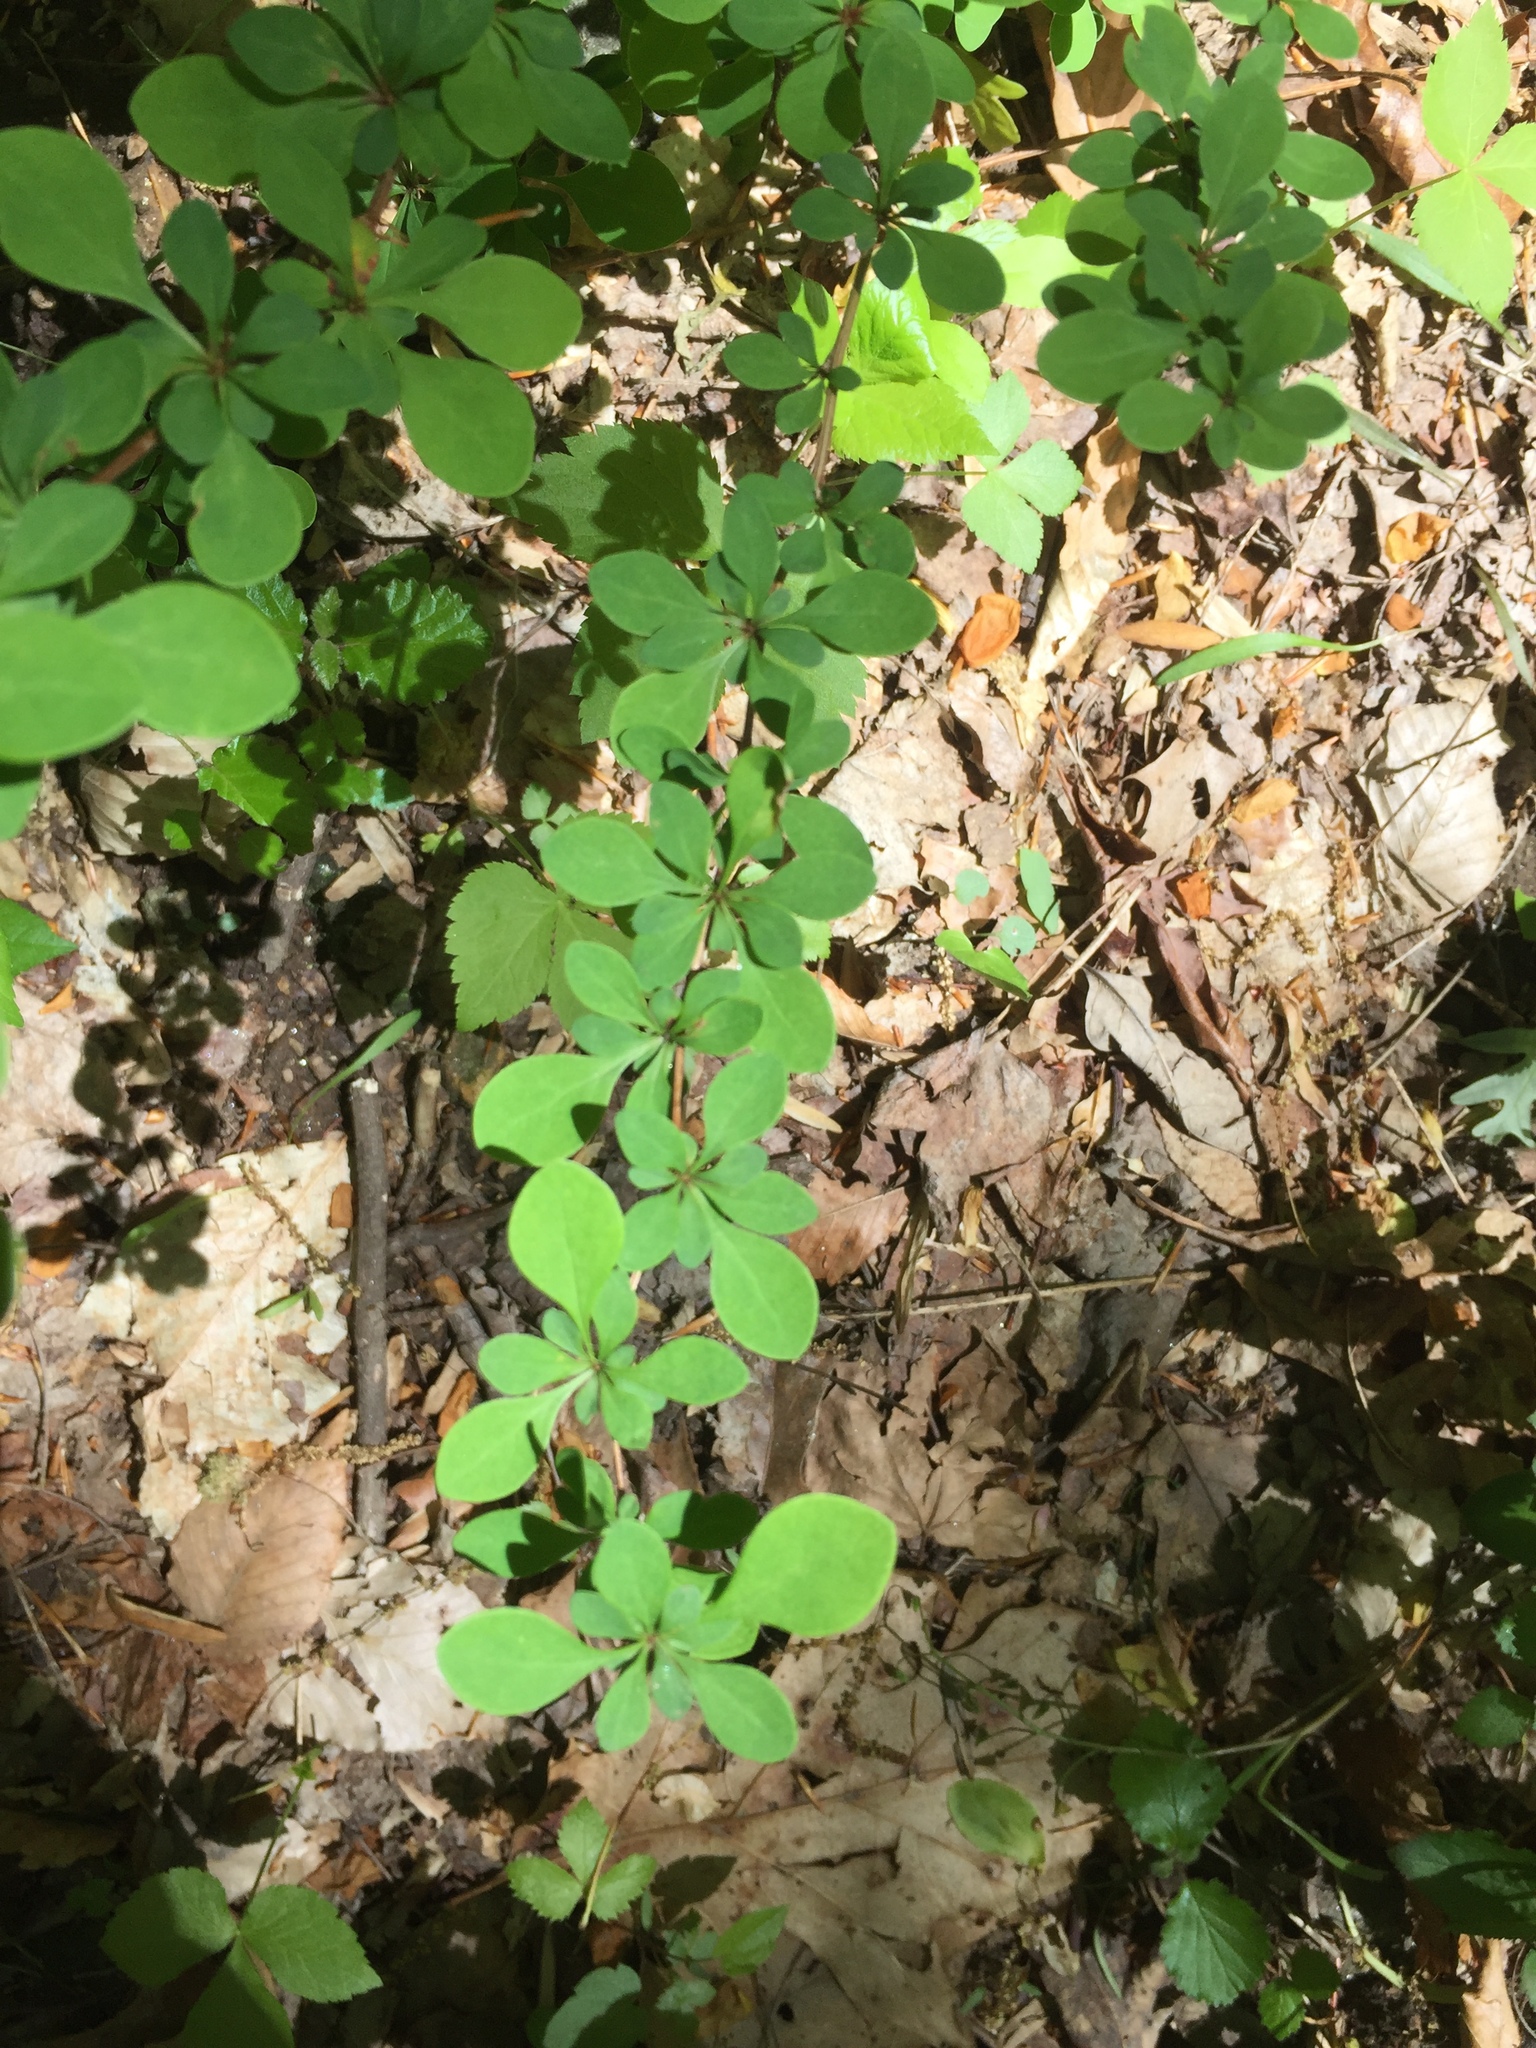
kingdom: Plantae
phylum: Tracheophyta
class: Magnoliopsida
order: Ranunculales
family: Berberidaceae
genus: Berberis
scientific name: Berberis thunbergii
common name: Japanese barberry
